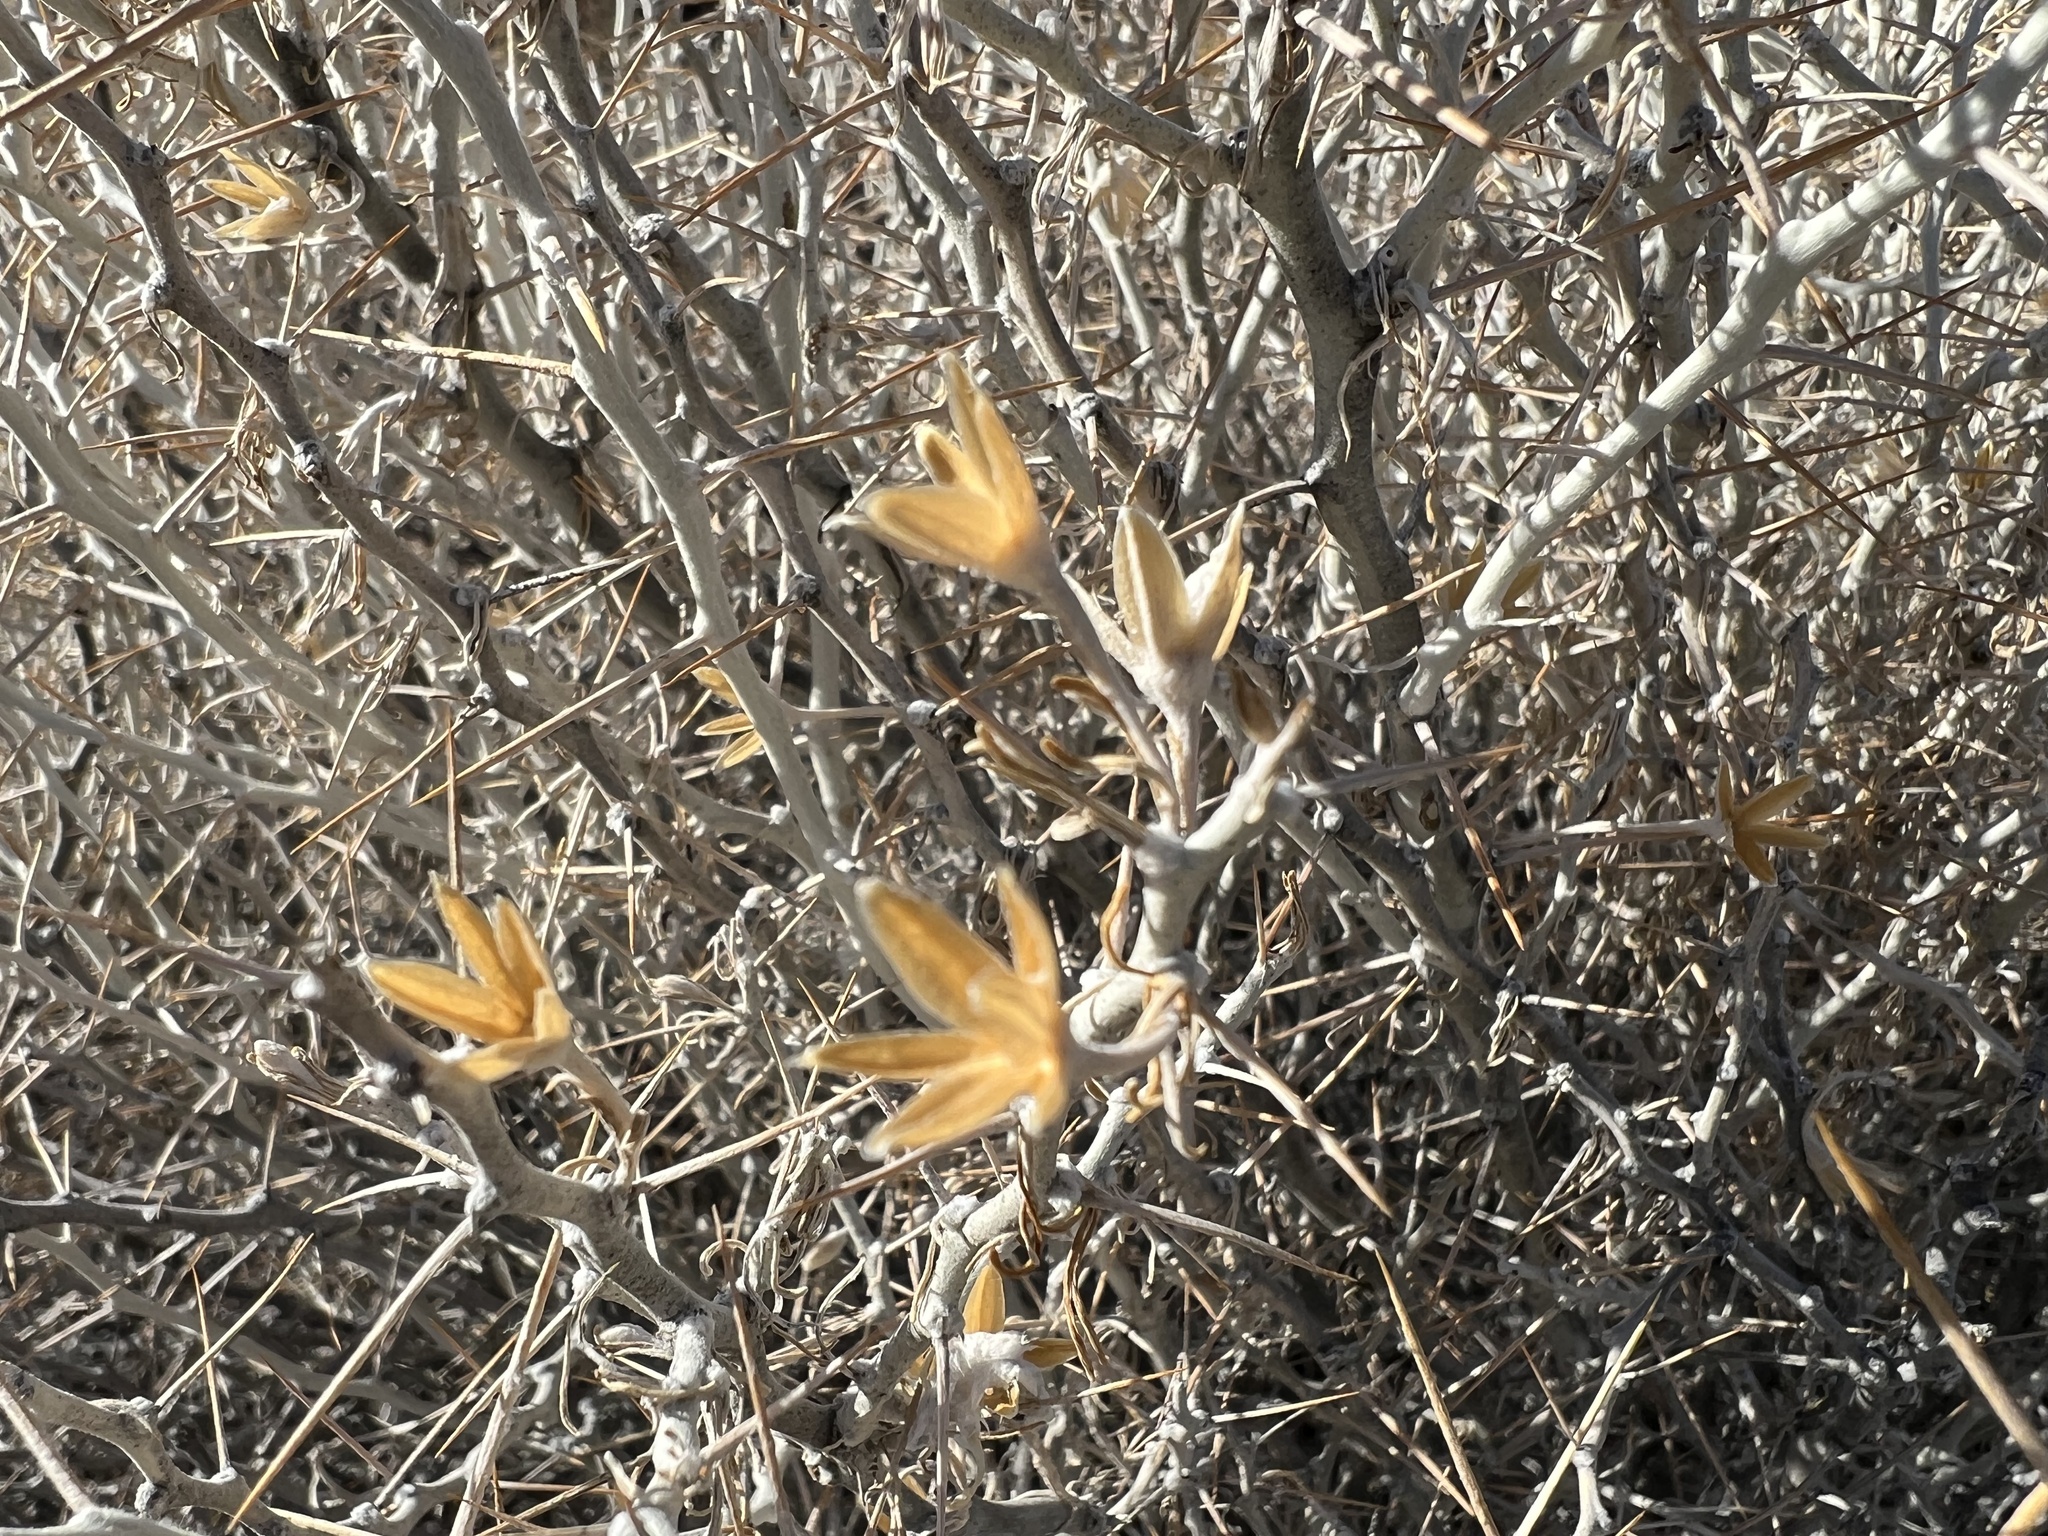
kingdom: Plantae
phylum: Tracheophyta
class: Magnoliopsida
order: Asterales
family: Asteraceae
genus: Tetradymia
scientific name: Tetradymia axillaris
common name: Long-spine horsebrush
